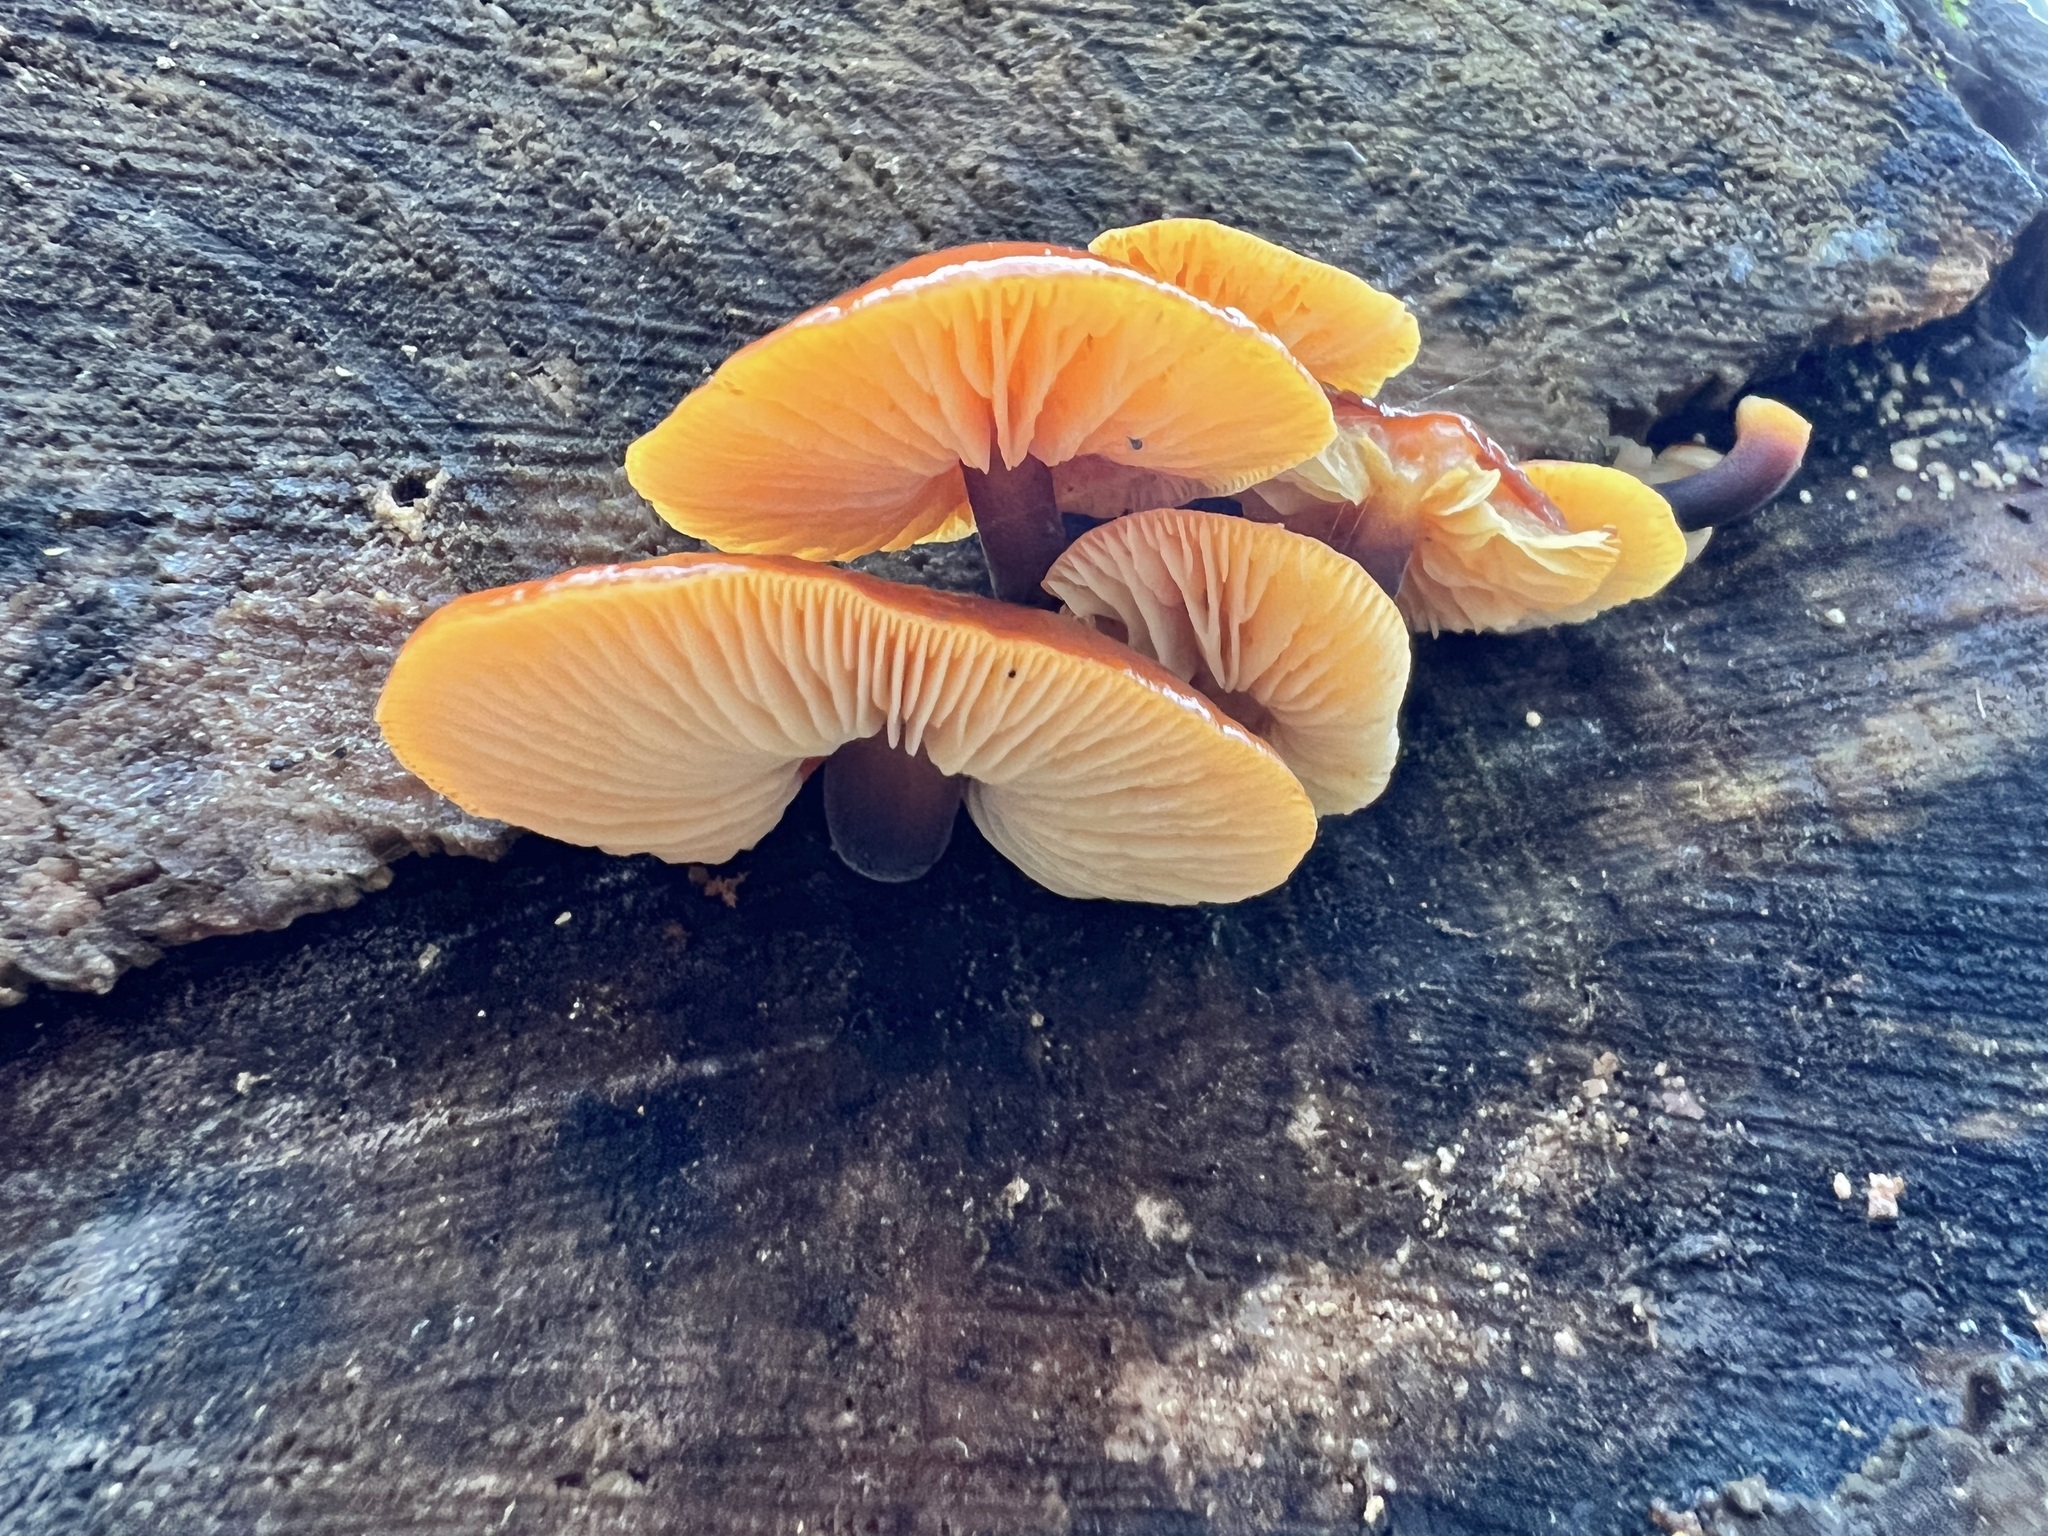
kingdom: Fungi
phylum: Basidiomycota
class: Agaricomycetes
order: Agaricales
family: Physalacriaceae
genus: Flammulina
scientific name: Flammulina velutipes
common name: Velvet shank
